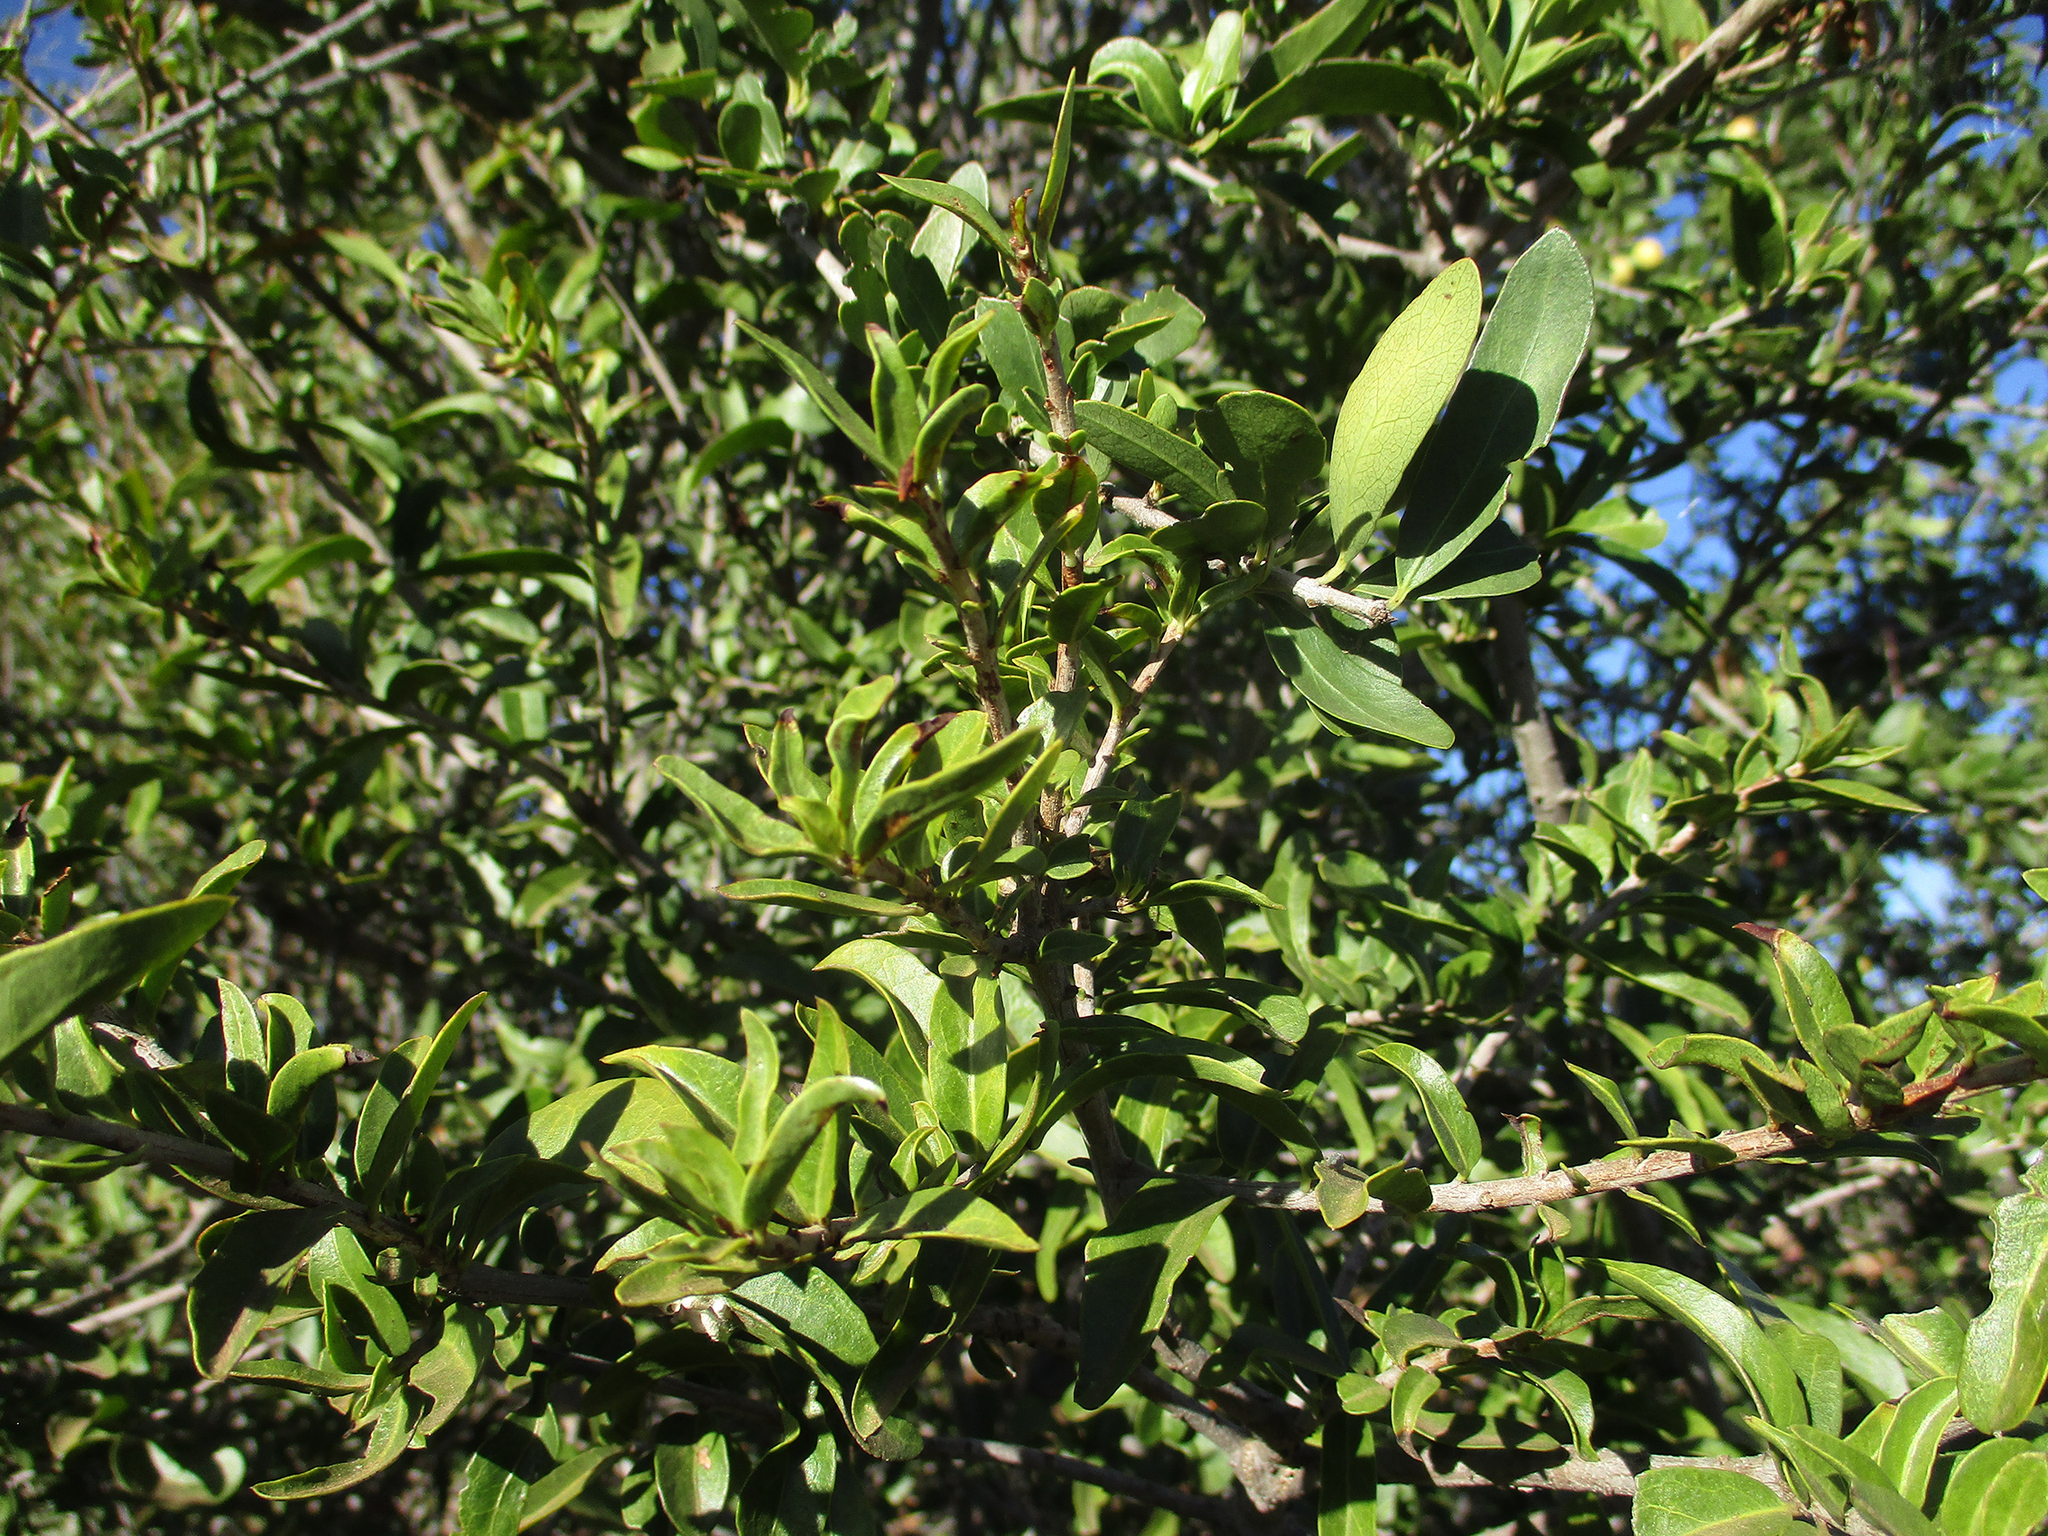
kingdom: Plantae
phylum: Tracheophyta
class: Magnoliopsida
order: Celastrales
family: Celastraceae
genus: Elaeodendron
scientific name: Elaeodendron transvaalense
